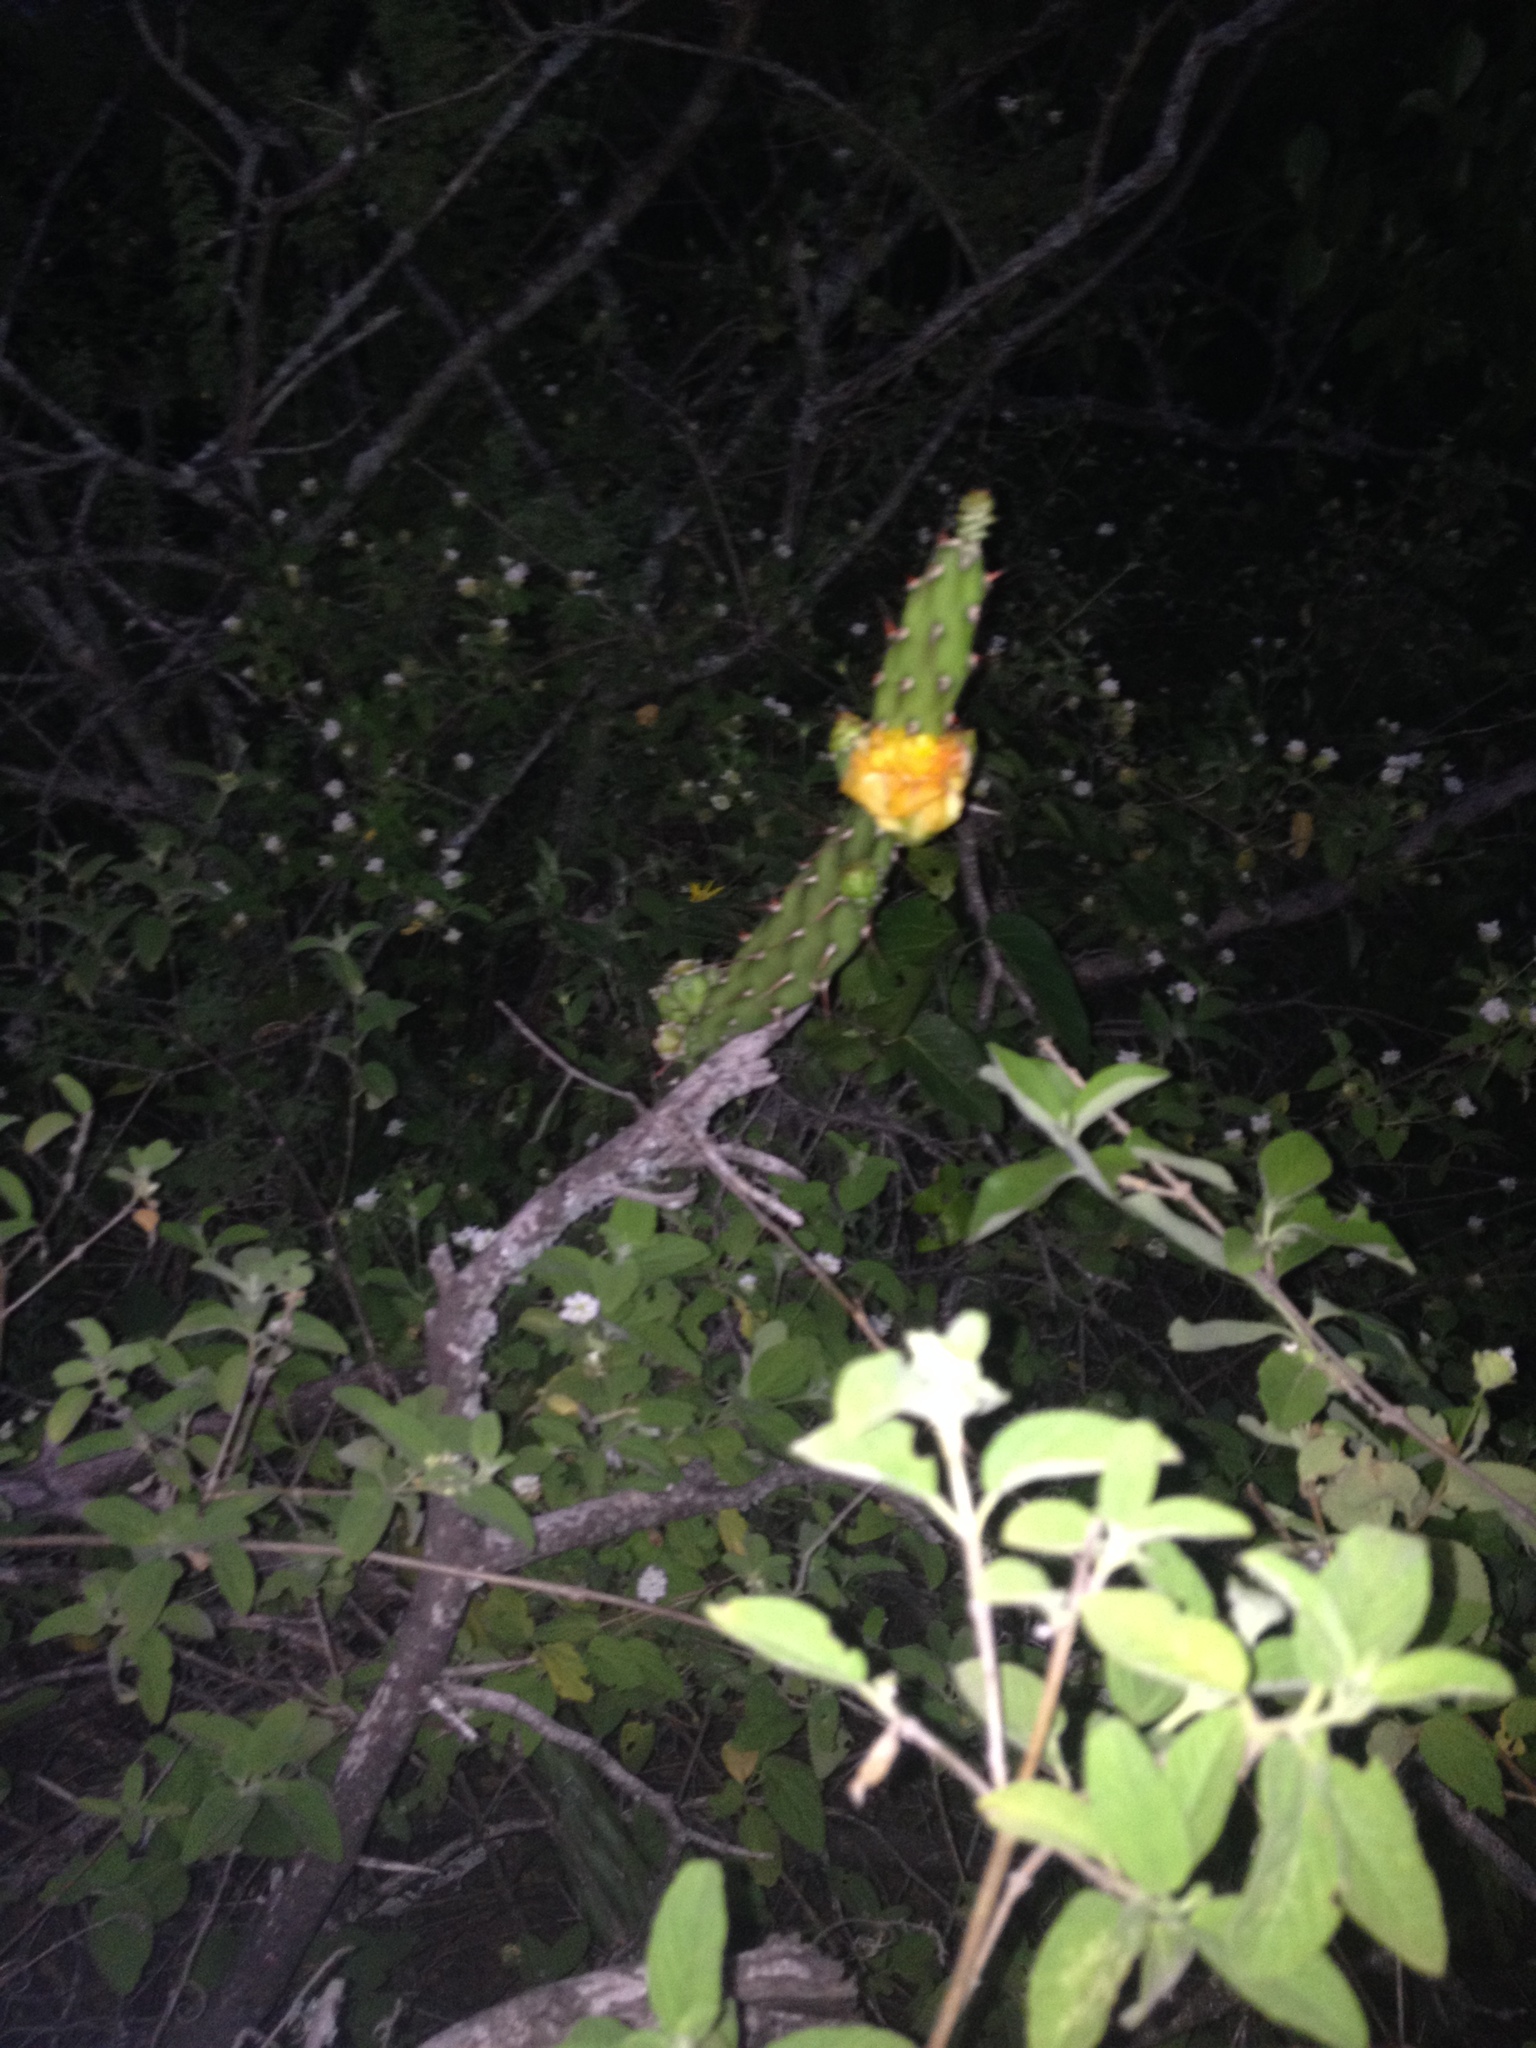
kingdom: Plantae
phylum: Tracheophyta
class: Magnoliopsida
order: Caryophyllales
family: Cactaceae
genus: Opuntia
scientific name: Opuntia anacantha
